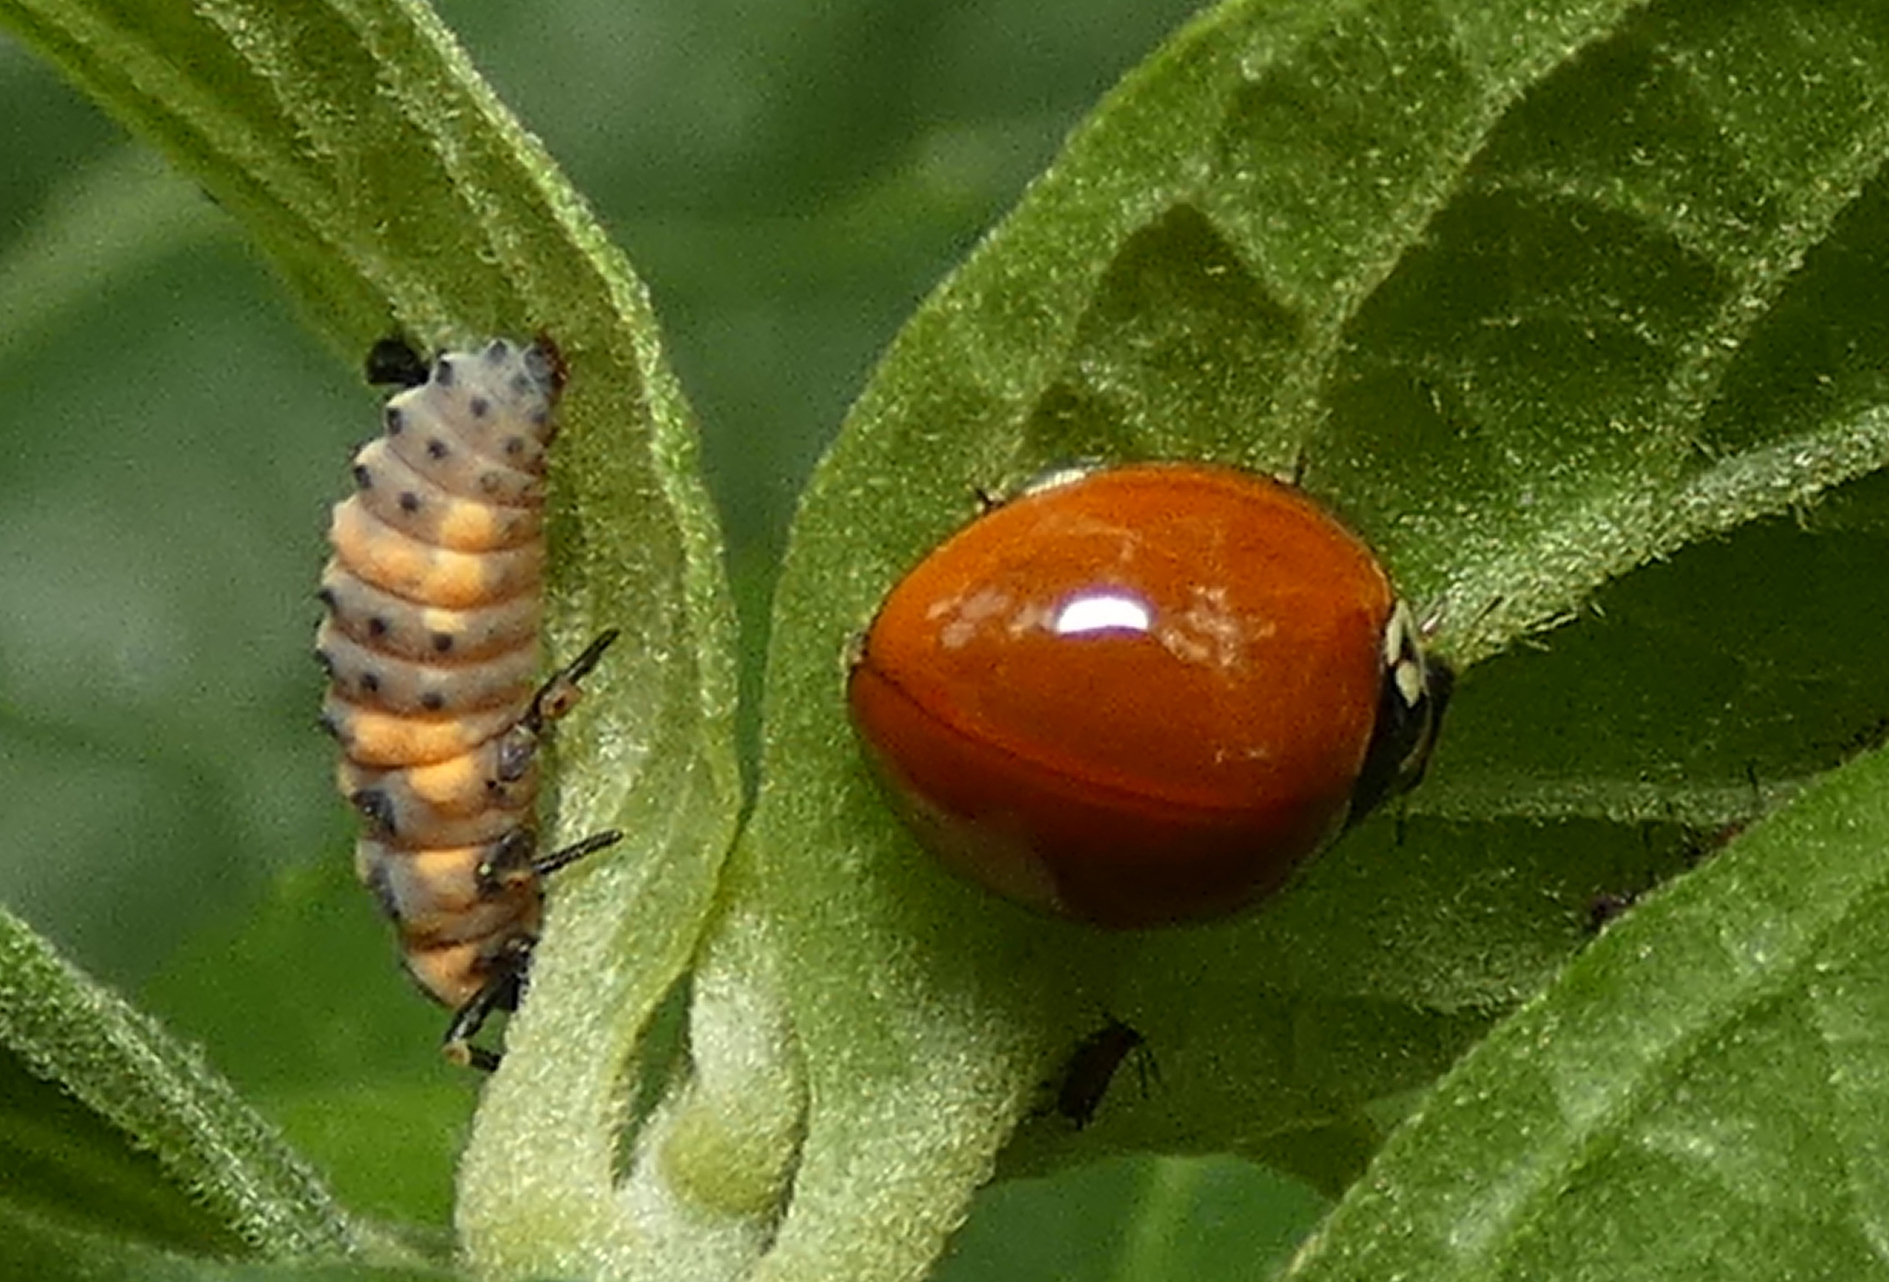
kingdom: Animalia
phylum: Arthropoda
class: Insecta
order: Coleoptera
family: Coccinellidae
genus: Cycloneda
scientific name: Cycloneda sanguinea
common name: Ladybird beetle
